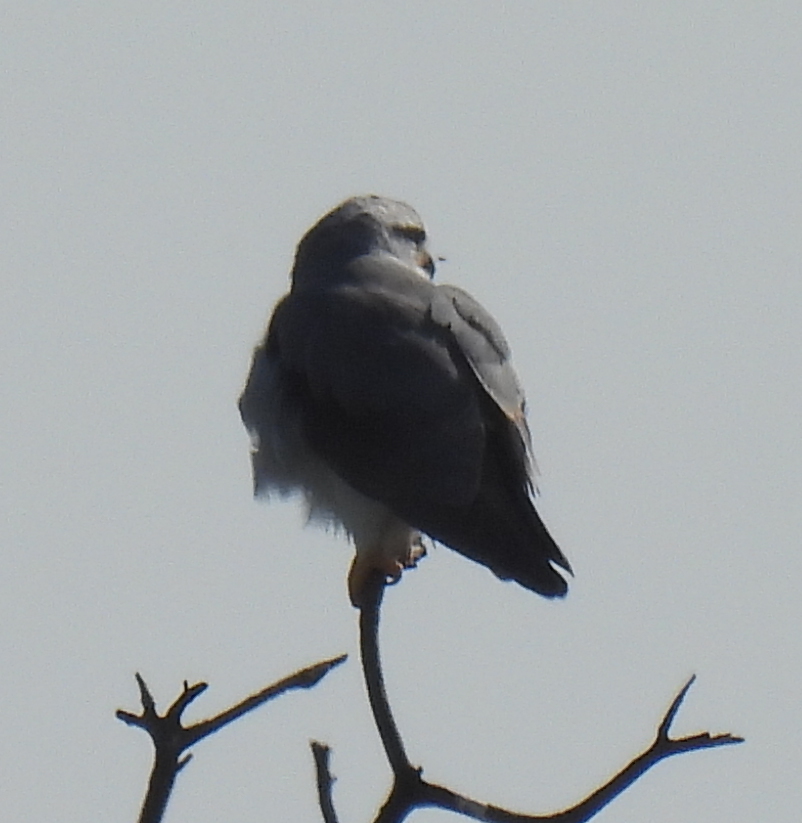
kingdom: Animalia
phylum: Chordata
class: Aves
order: Accipitriformes
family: Accipitridae
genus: Elanus
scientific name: Elanus caeruleus
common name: Black-winged kite
